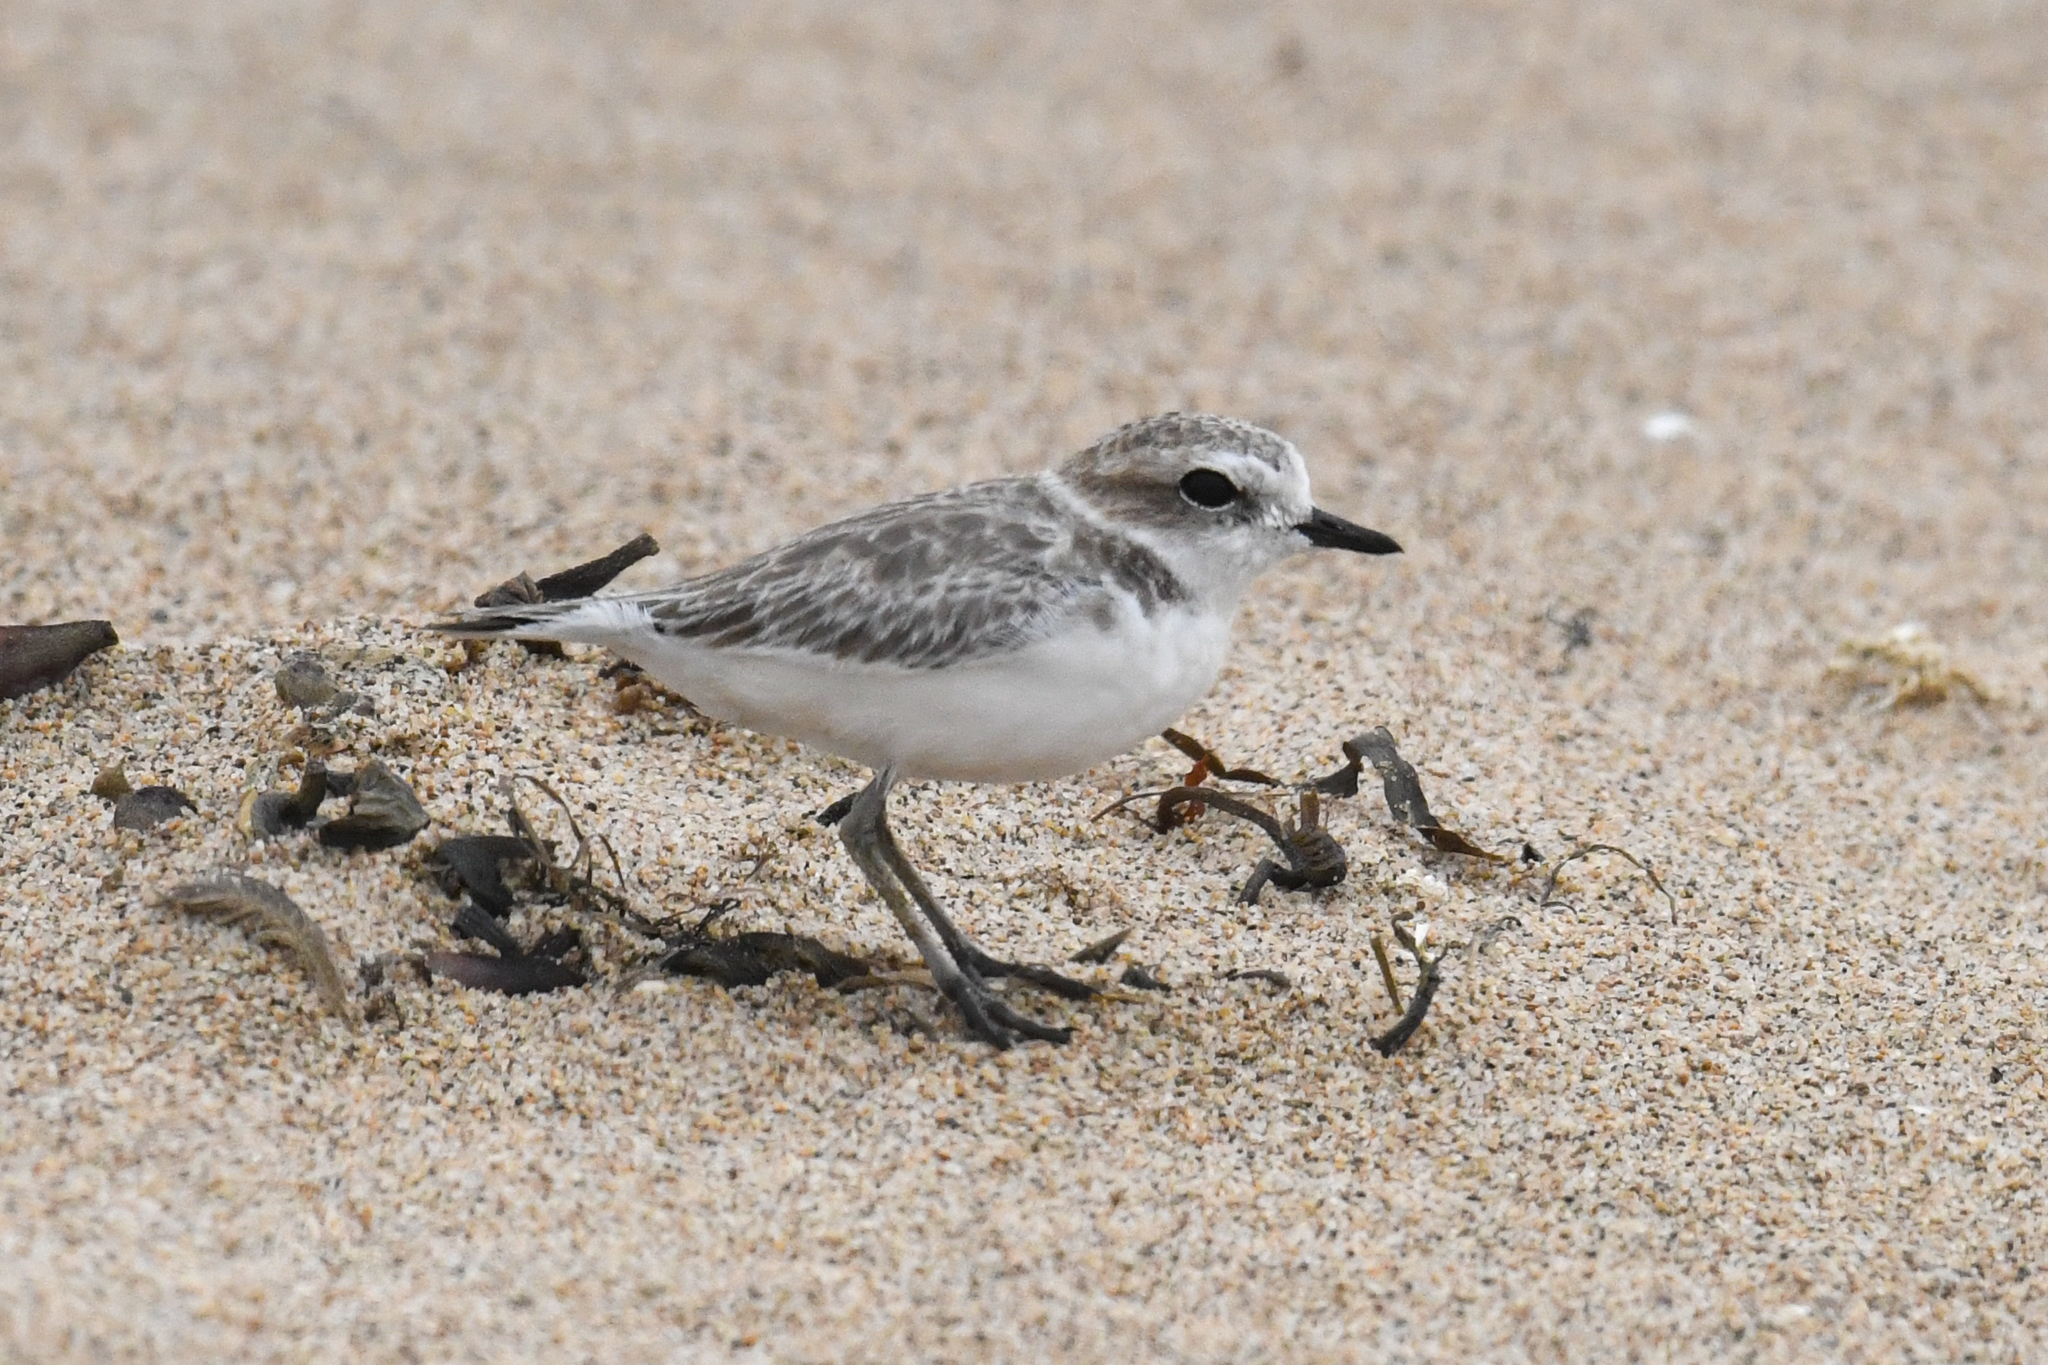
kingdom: Animalia
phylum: Chordata
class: Aves
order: Charadriiformes
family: Charadriidae
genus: Anarhynchus
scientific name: Anarhynchus
